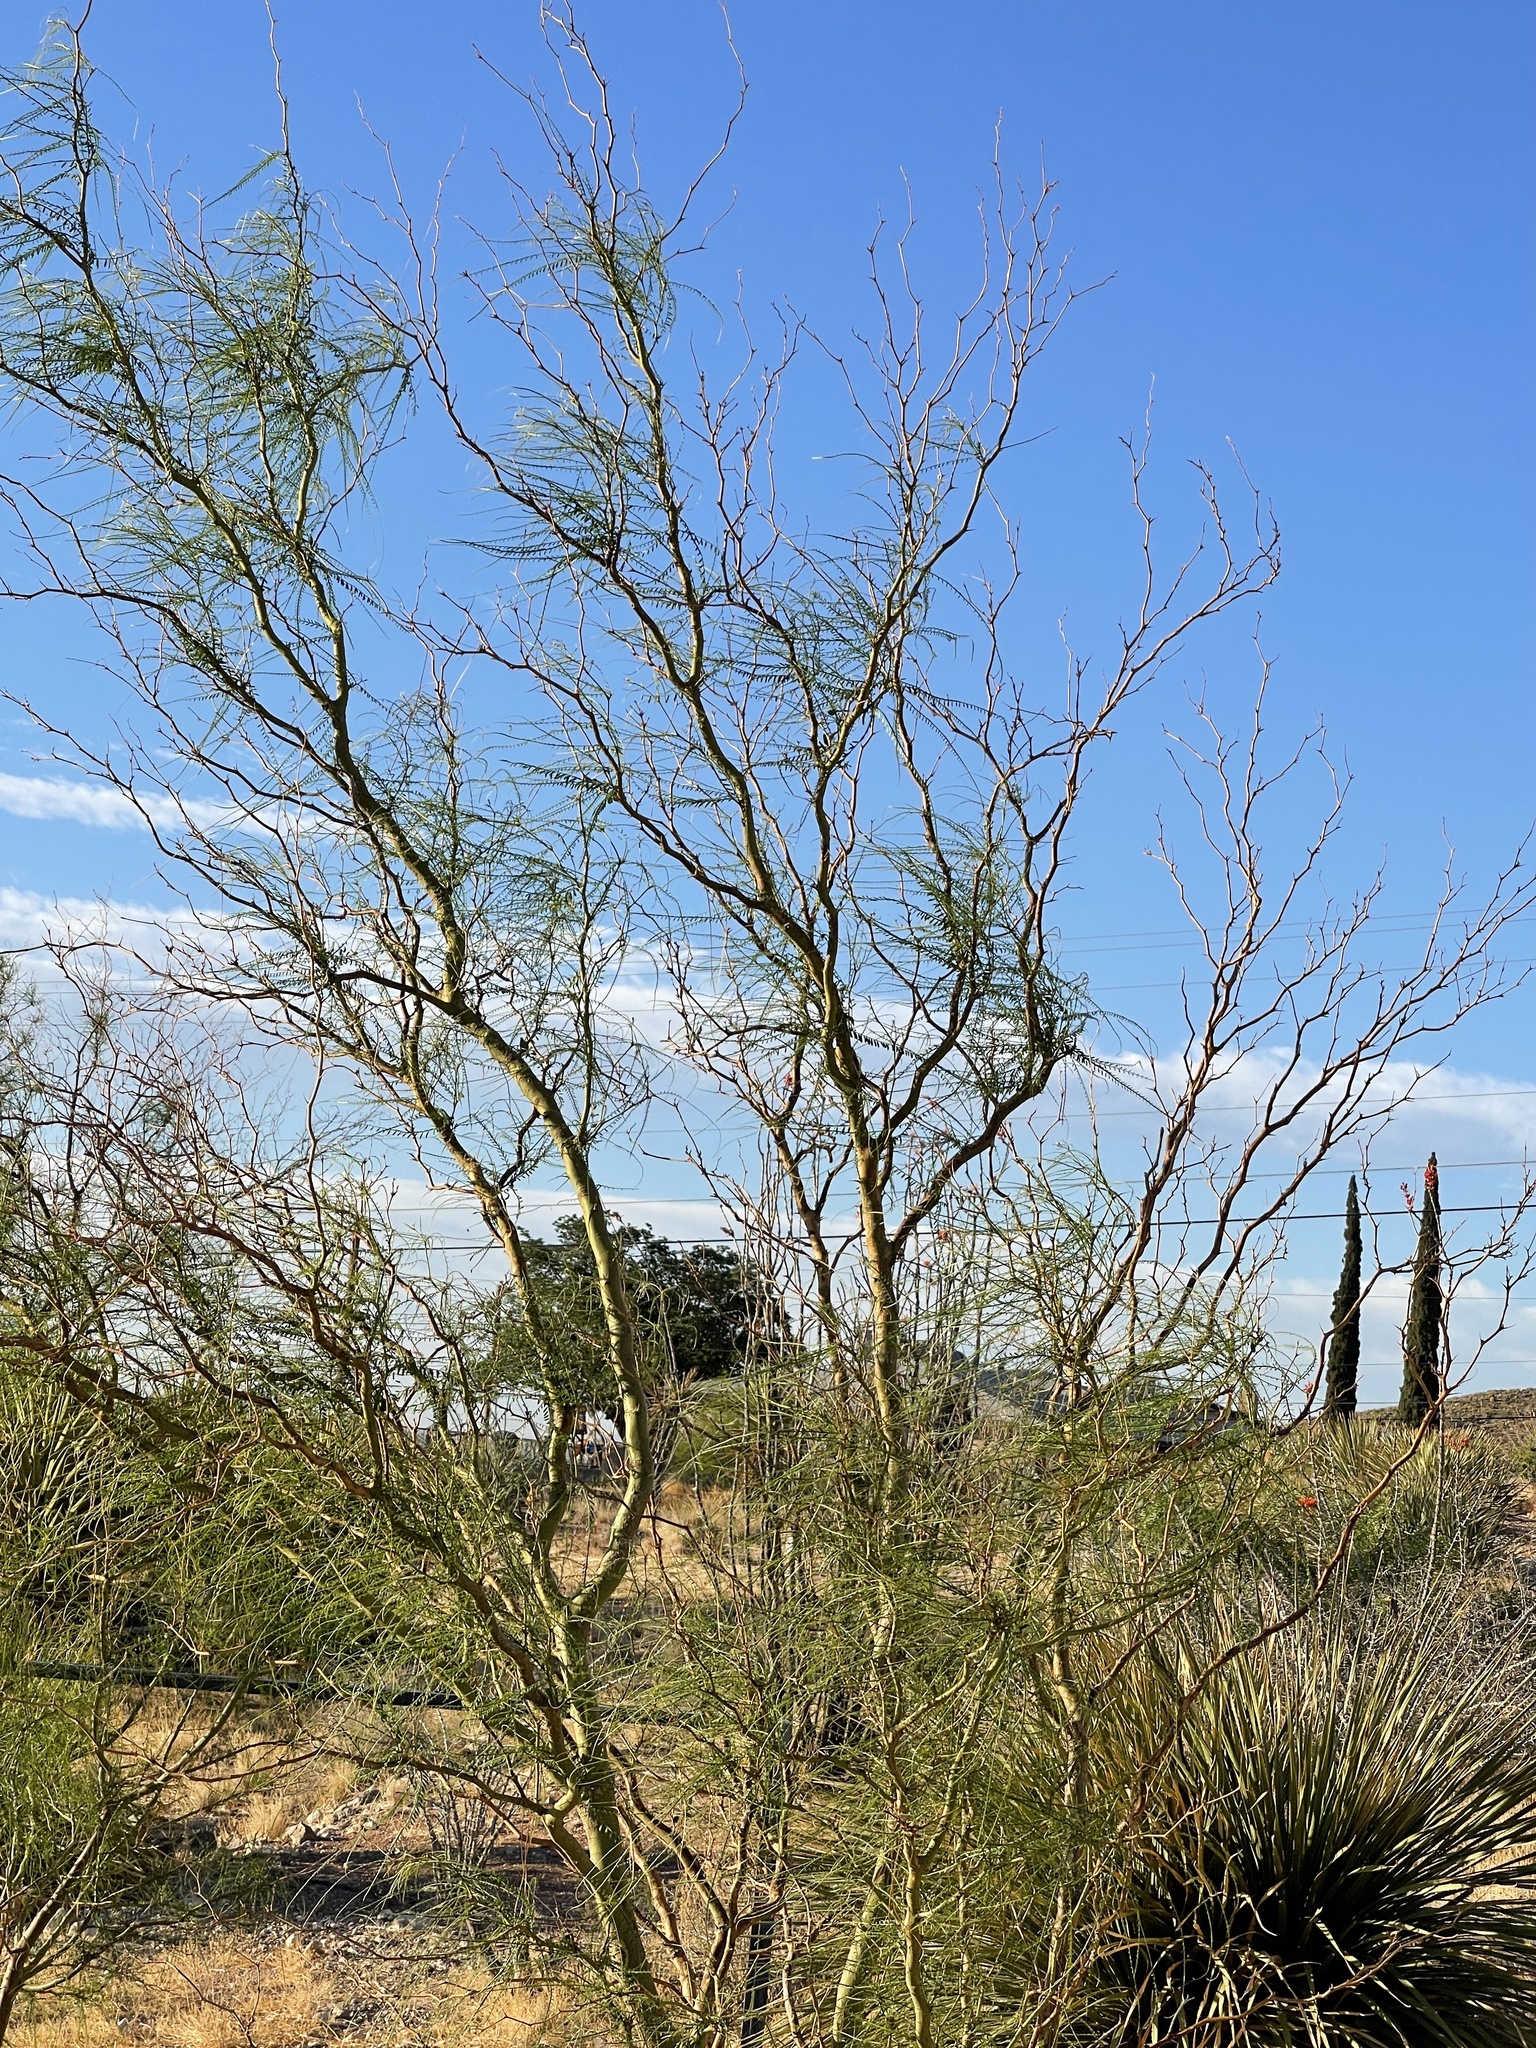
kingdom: Plantae
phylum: Tracheophyta
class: Magnoliopsida
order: Fabales
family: Fabaceae
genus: Parkinsonia
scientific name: Parkinsonia aculeata
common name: Jerusalem thorn
